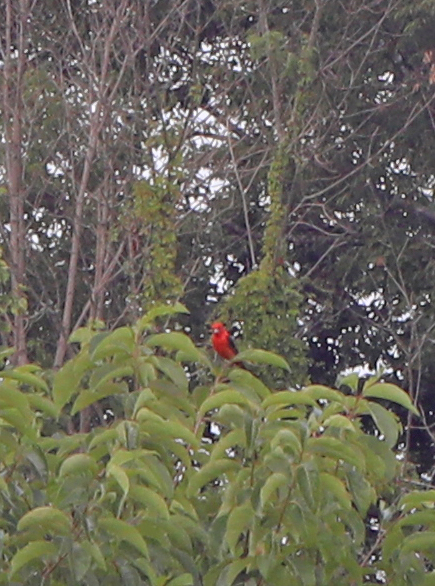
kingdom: Animalia
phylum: Chordata
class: Aves
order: Passeriformes
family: Cardinalidae
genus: Piranga
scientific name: Piranga olivacea
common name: Scarlet tanager
